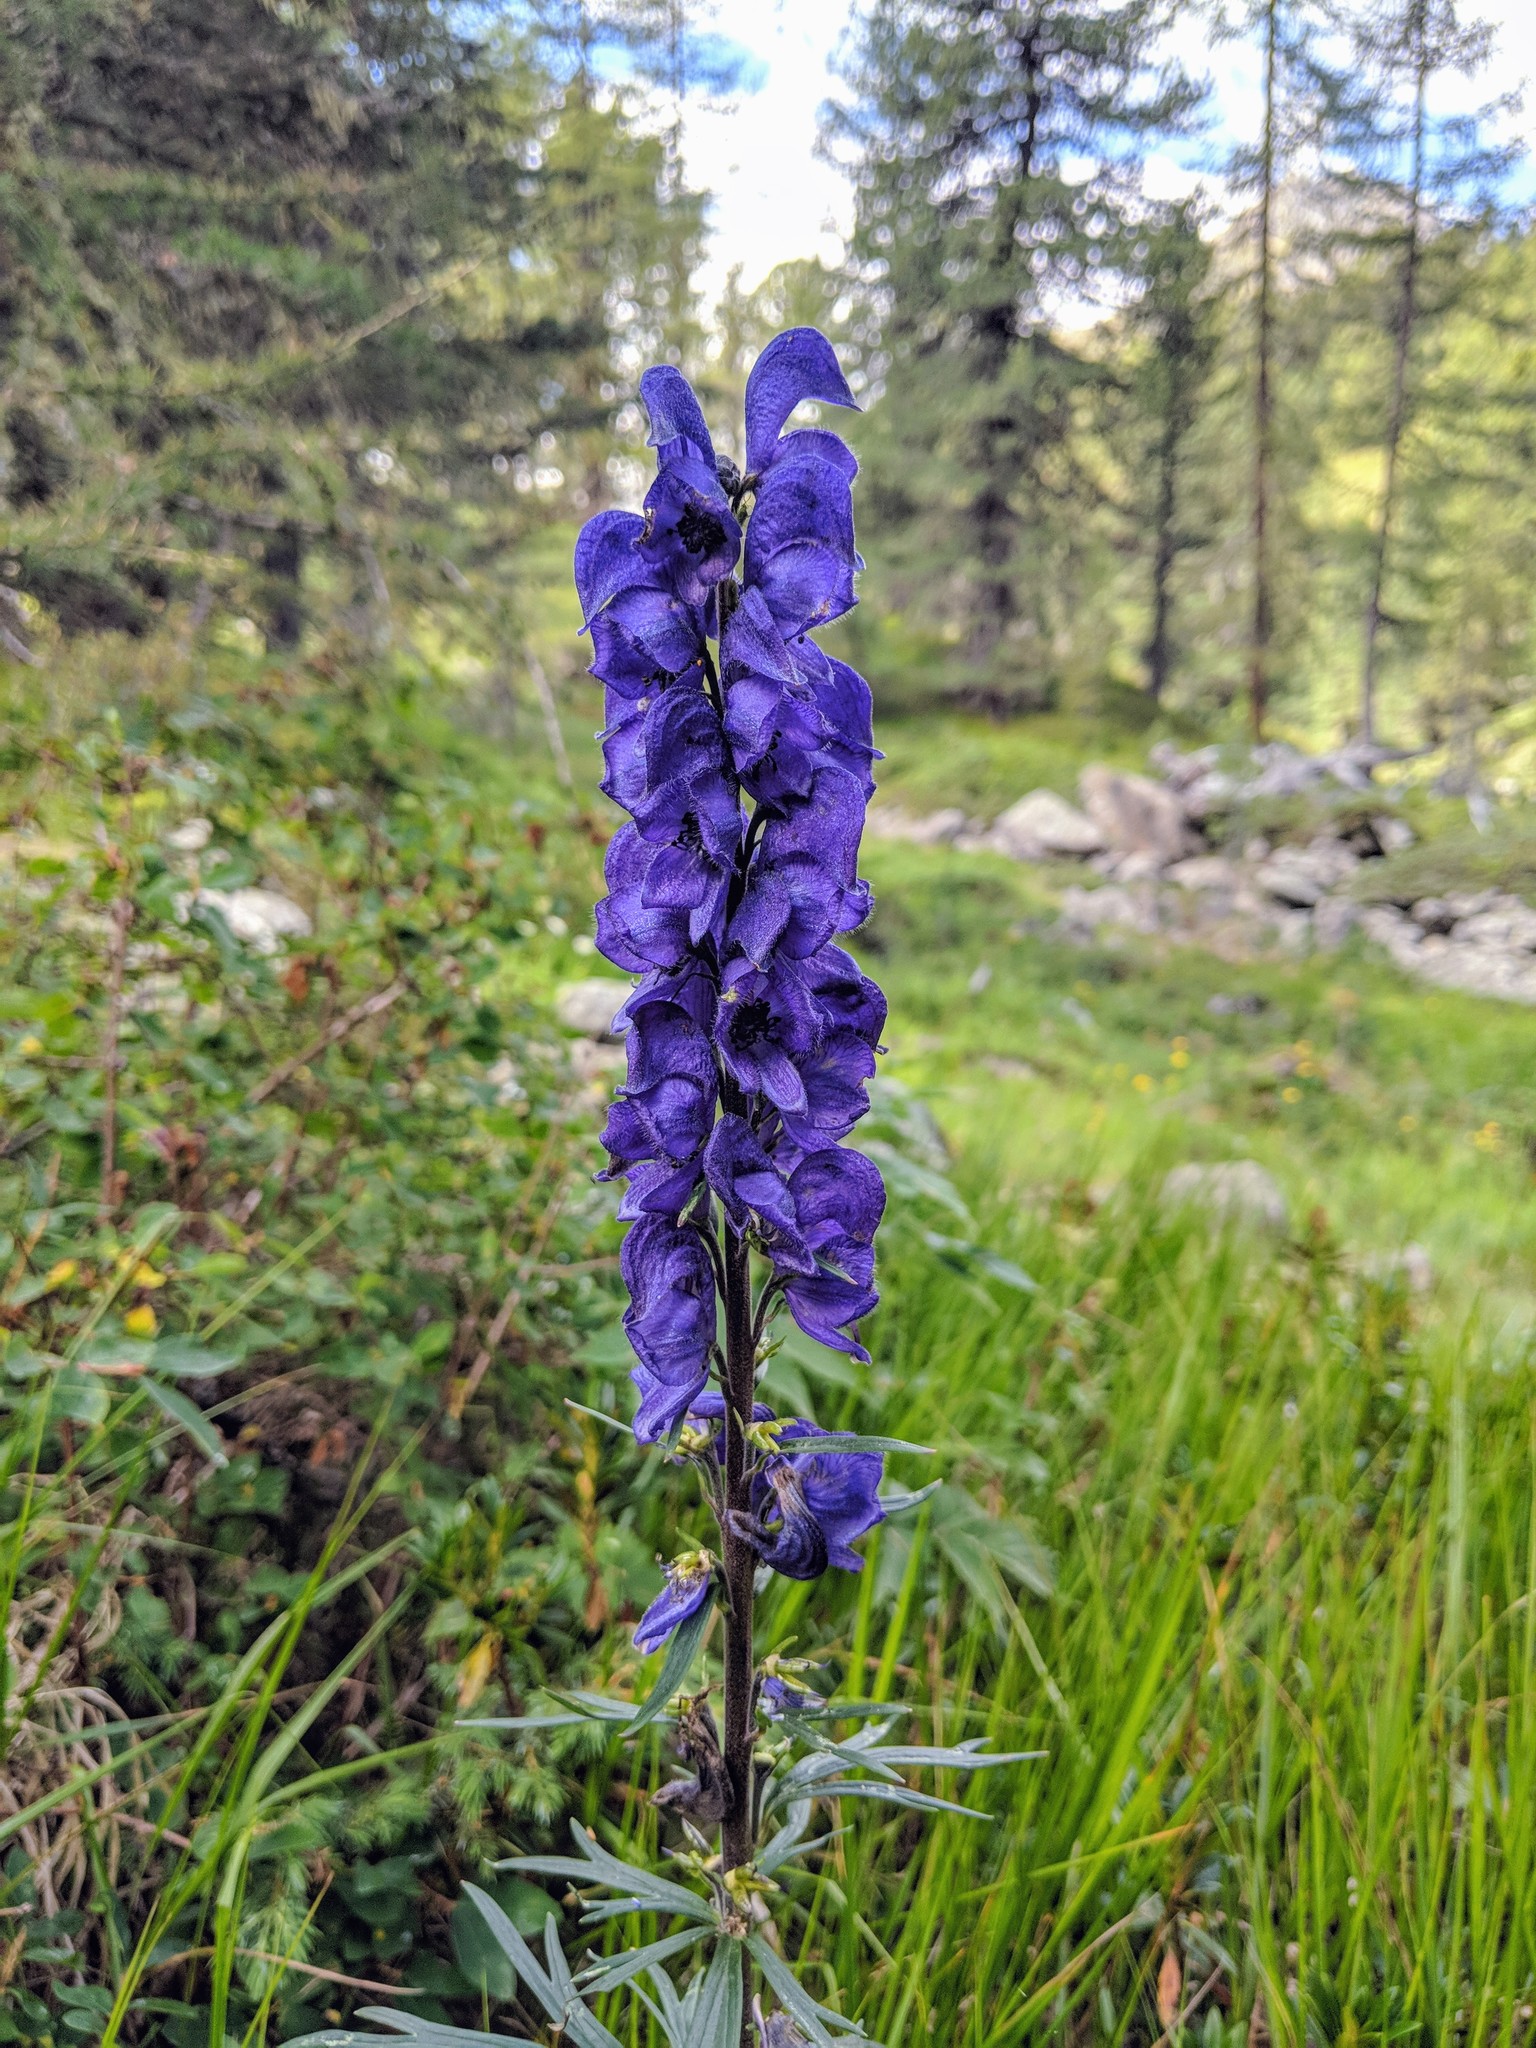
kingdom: Plantae
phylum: Tracheophyta
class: Magnoliopsida
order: Ranunculales
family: Ranunculaceae
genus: Aconitum
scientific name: Aconitum napellus
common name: Garden monkshood
